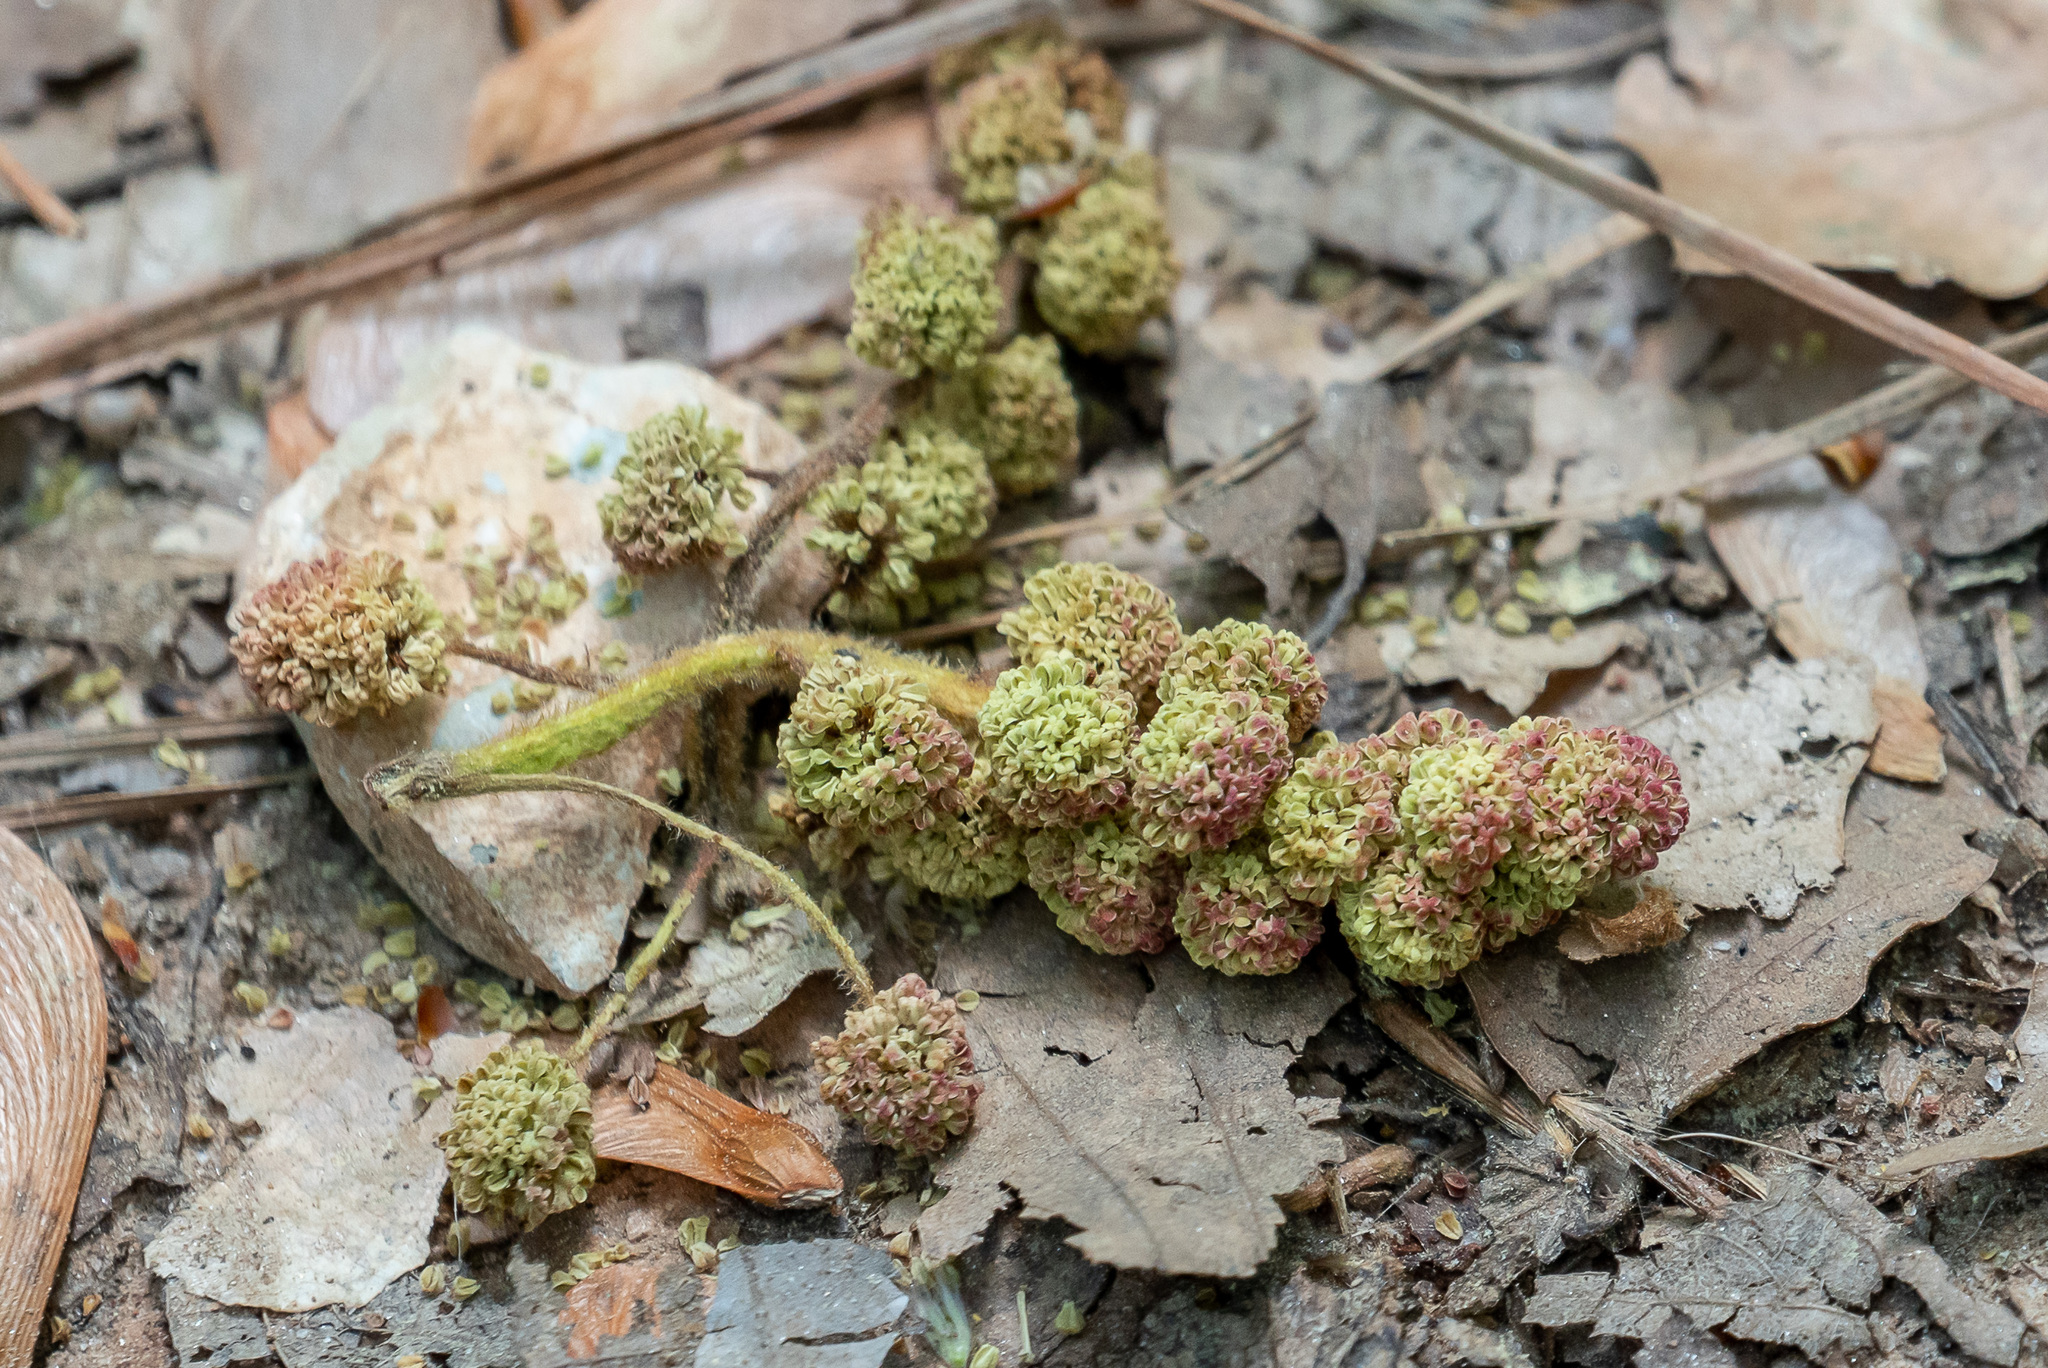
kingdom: Plantae
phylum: Tracheophyta
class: Magnoliopsida
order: Saxifragales
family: Altingiaceae
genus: Liquidambar
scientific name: Liquidambar styraciflua
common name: Sweet gum
